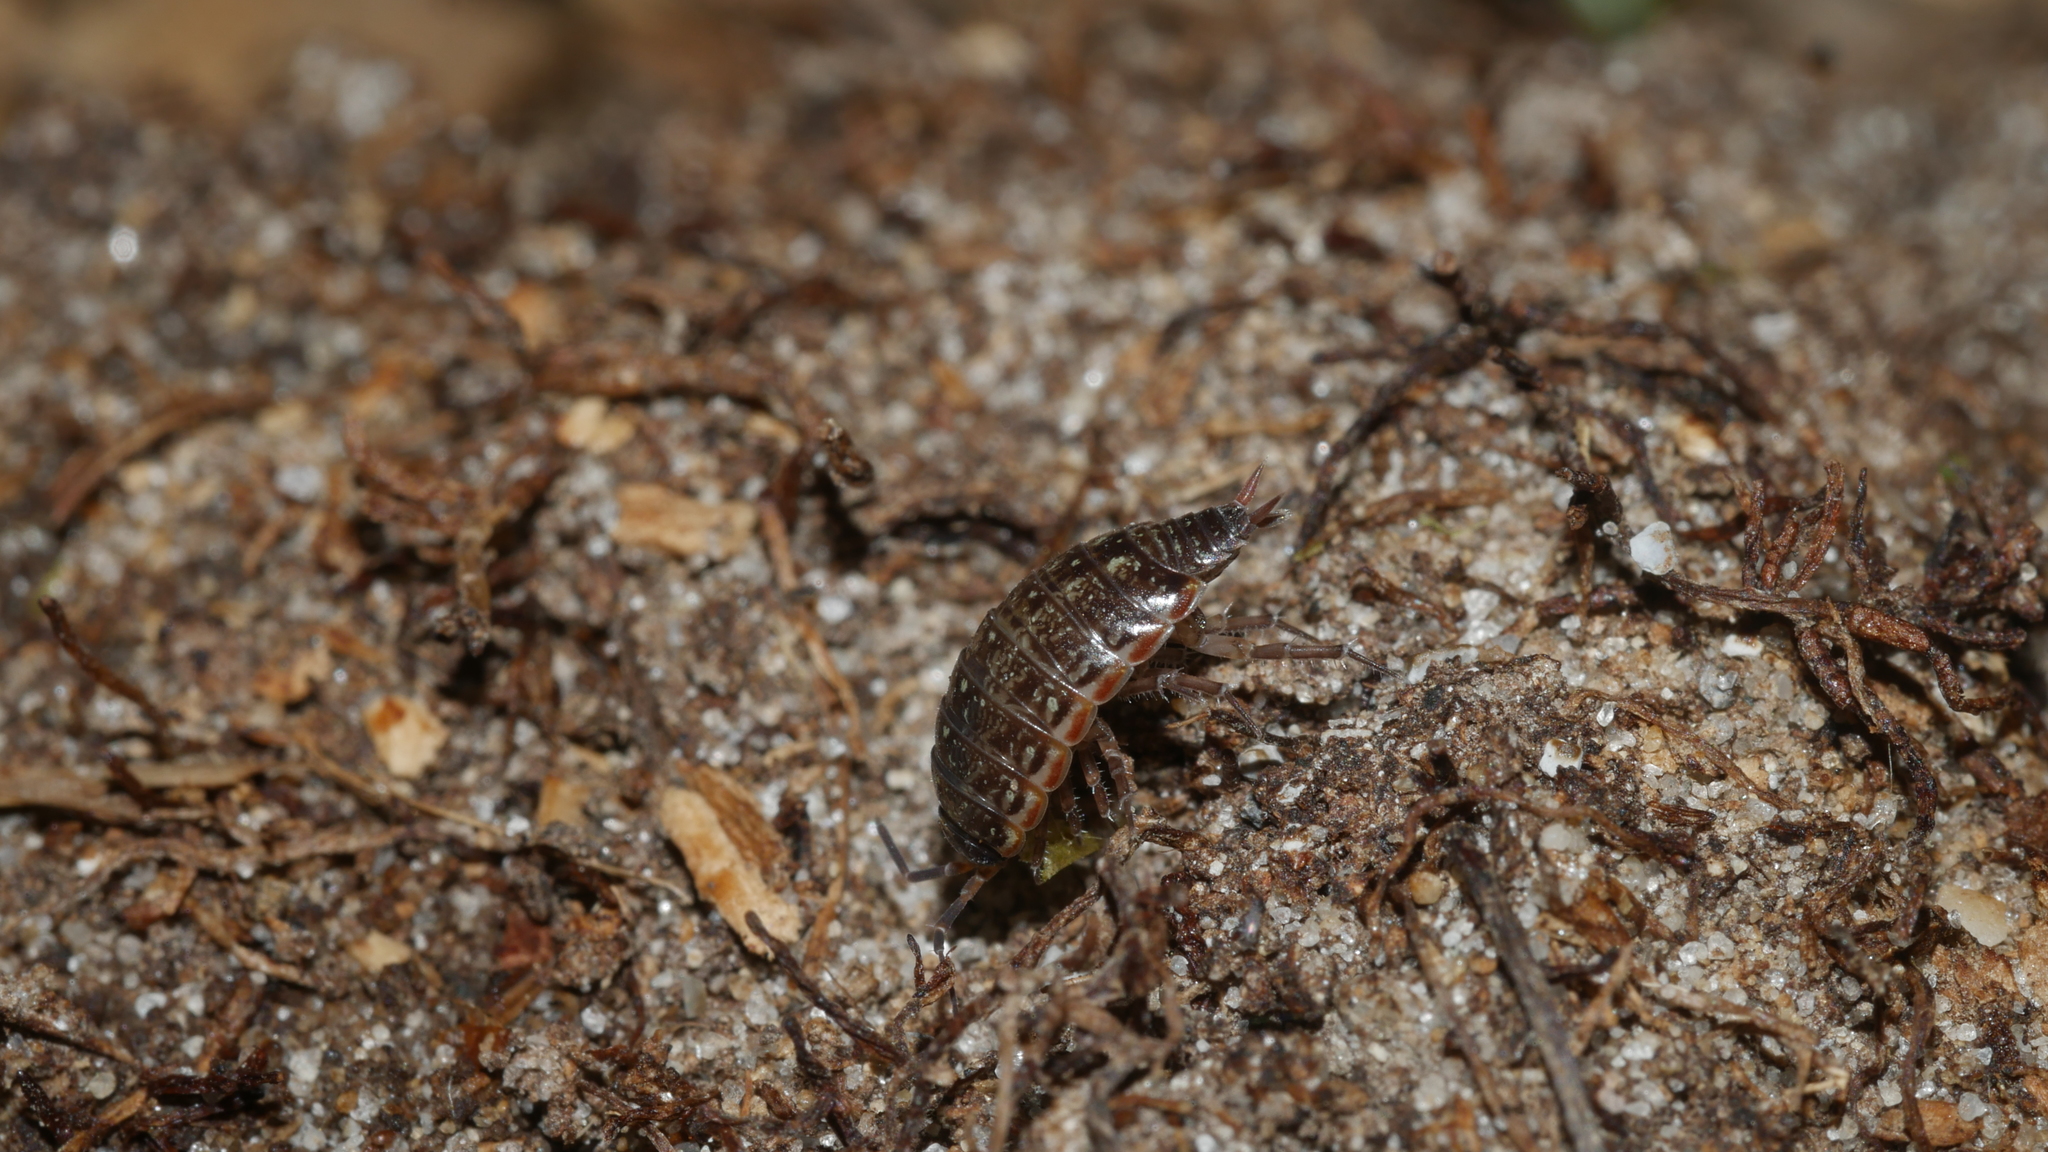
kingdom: Animalia
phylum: Arthropoda
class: Malacostraca
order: Isopoda
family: Philosciidae
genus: Philoscia
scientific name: Philoscia muscorum
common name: Common striped woodlouse
